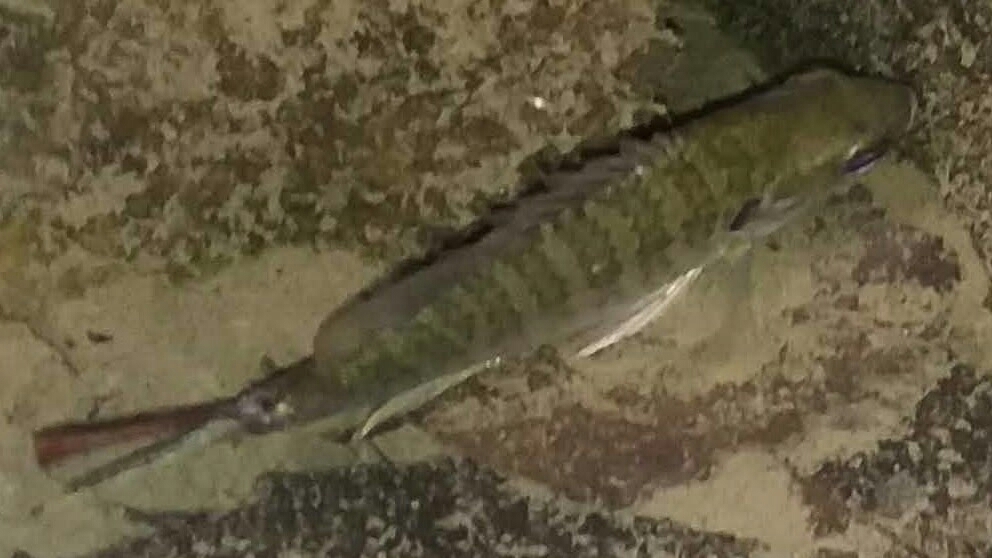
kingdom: Animalia
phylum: Chordata
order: Perciformes
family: Centrarchidae
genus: Lepomis
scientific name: Lepomis
